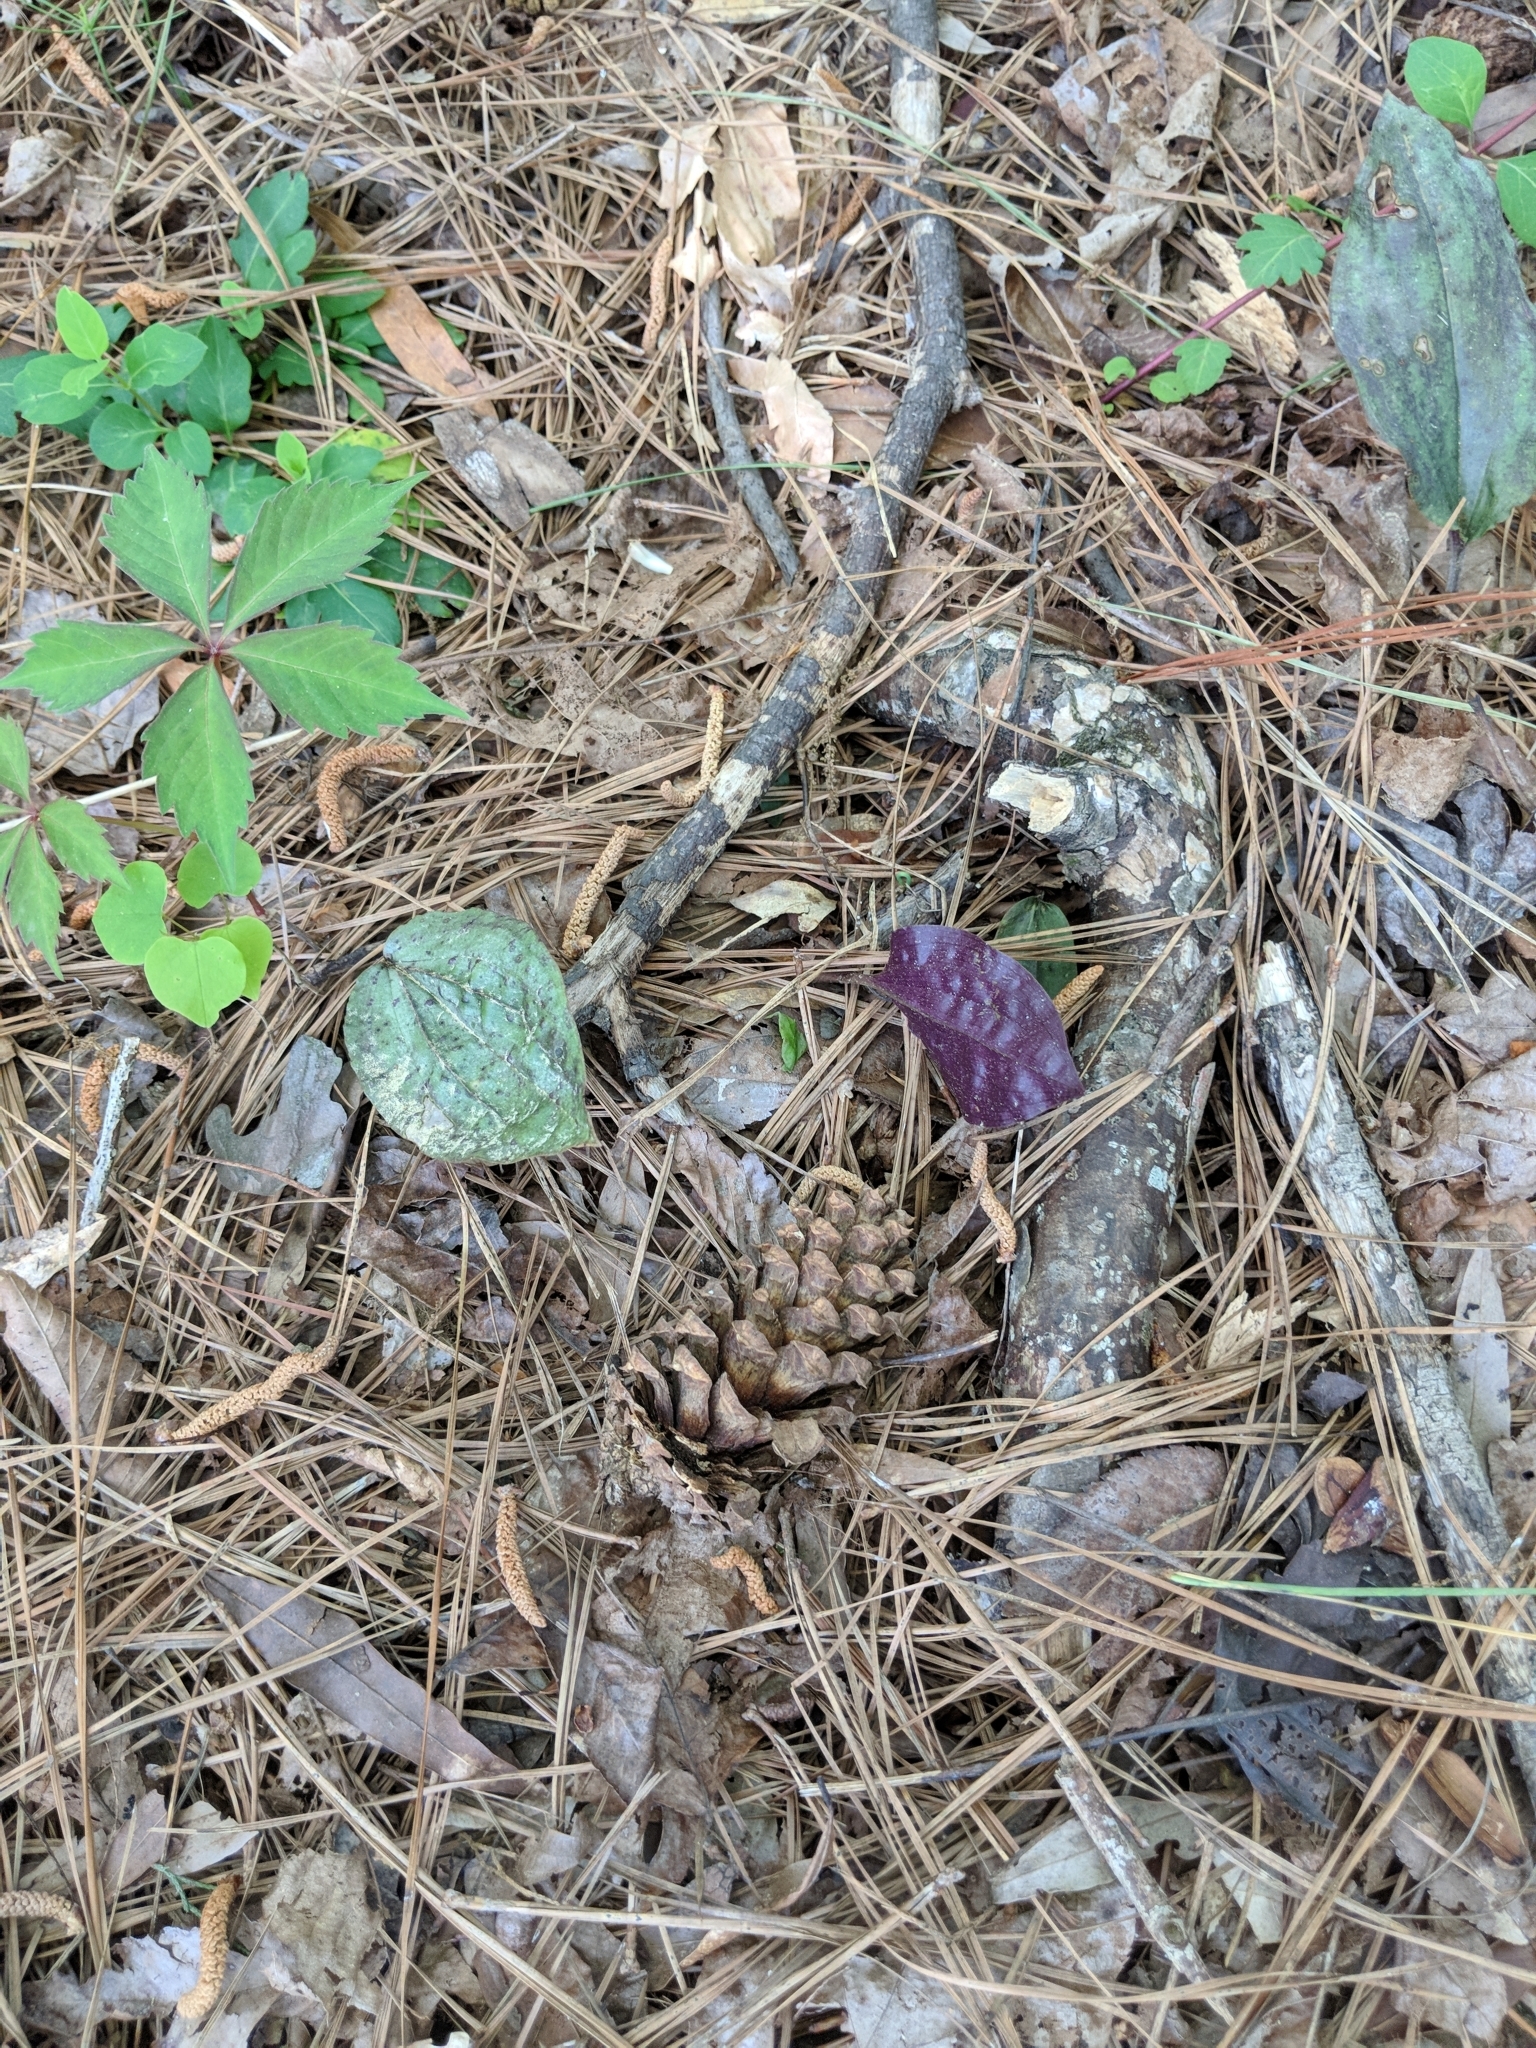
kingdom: Plantae
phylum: Tracheophyta
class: Liliopsida
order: Asparagales
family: Orchidaceae
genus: Tipularia
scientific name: Tipularia discolor
